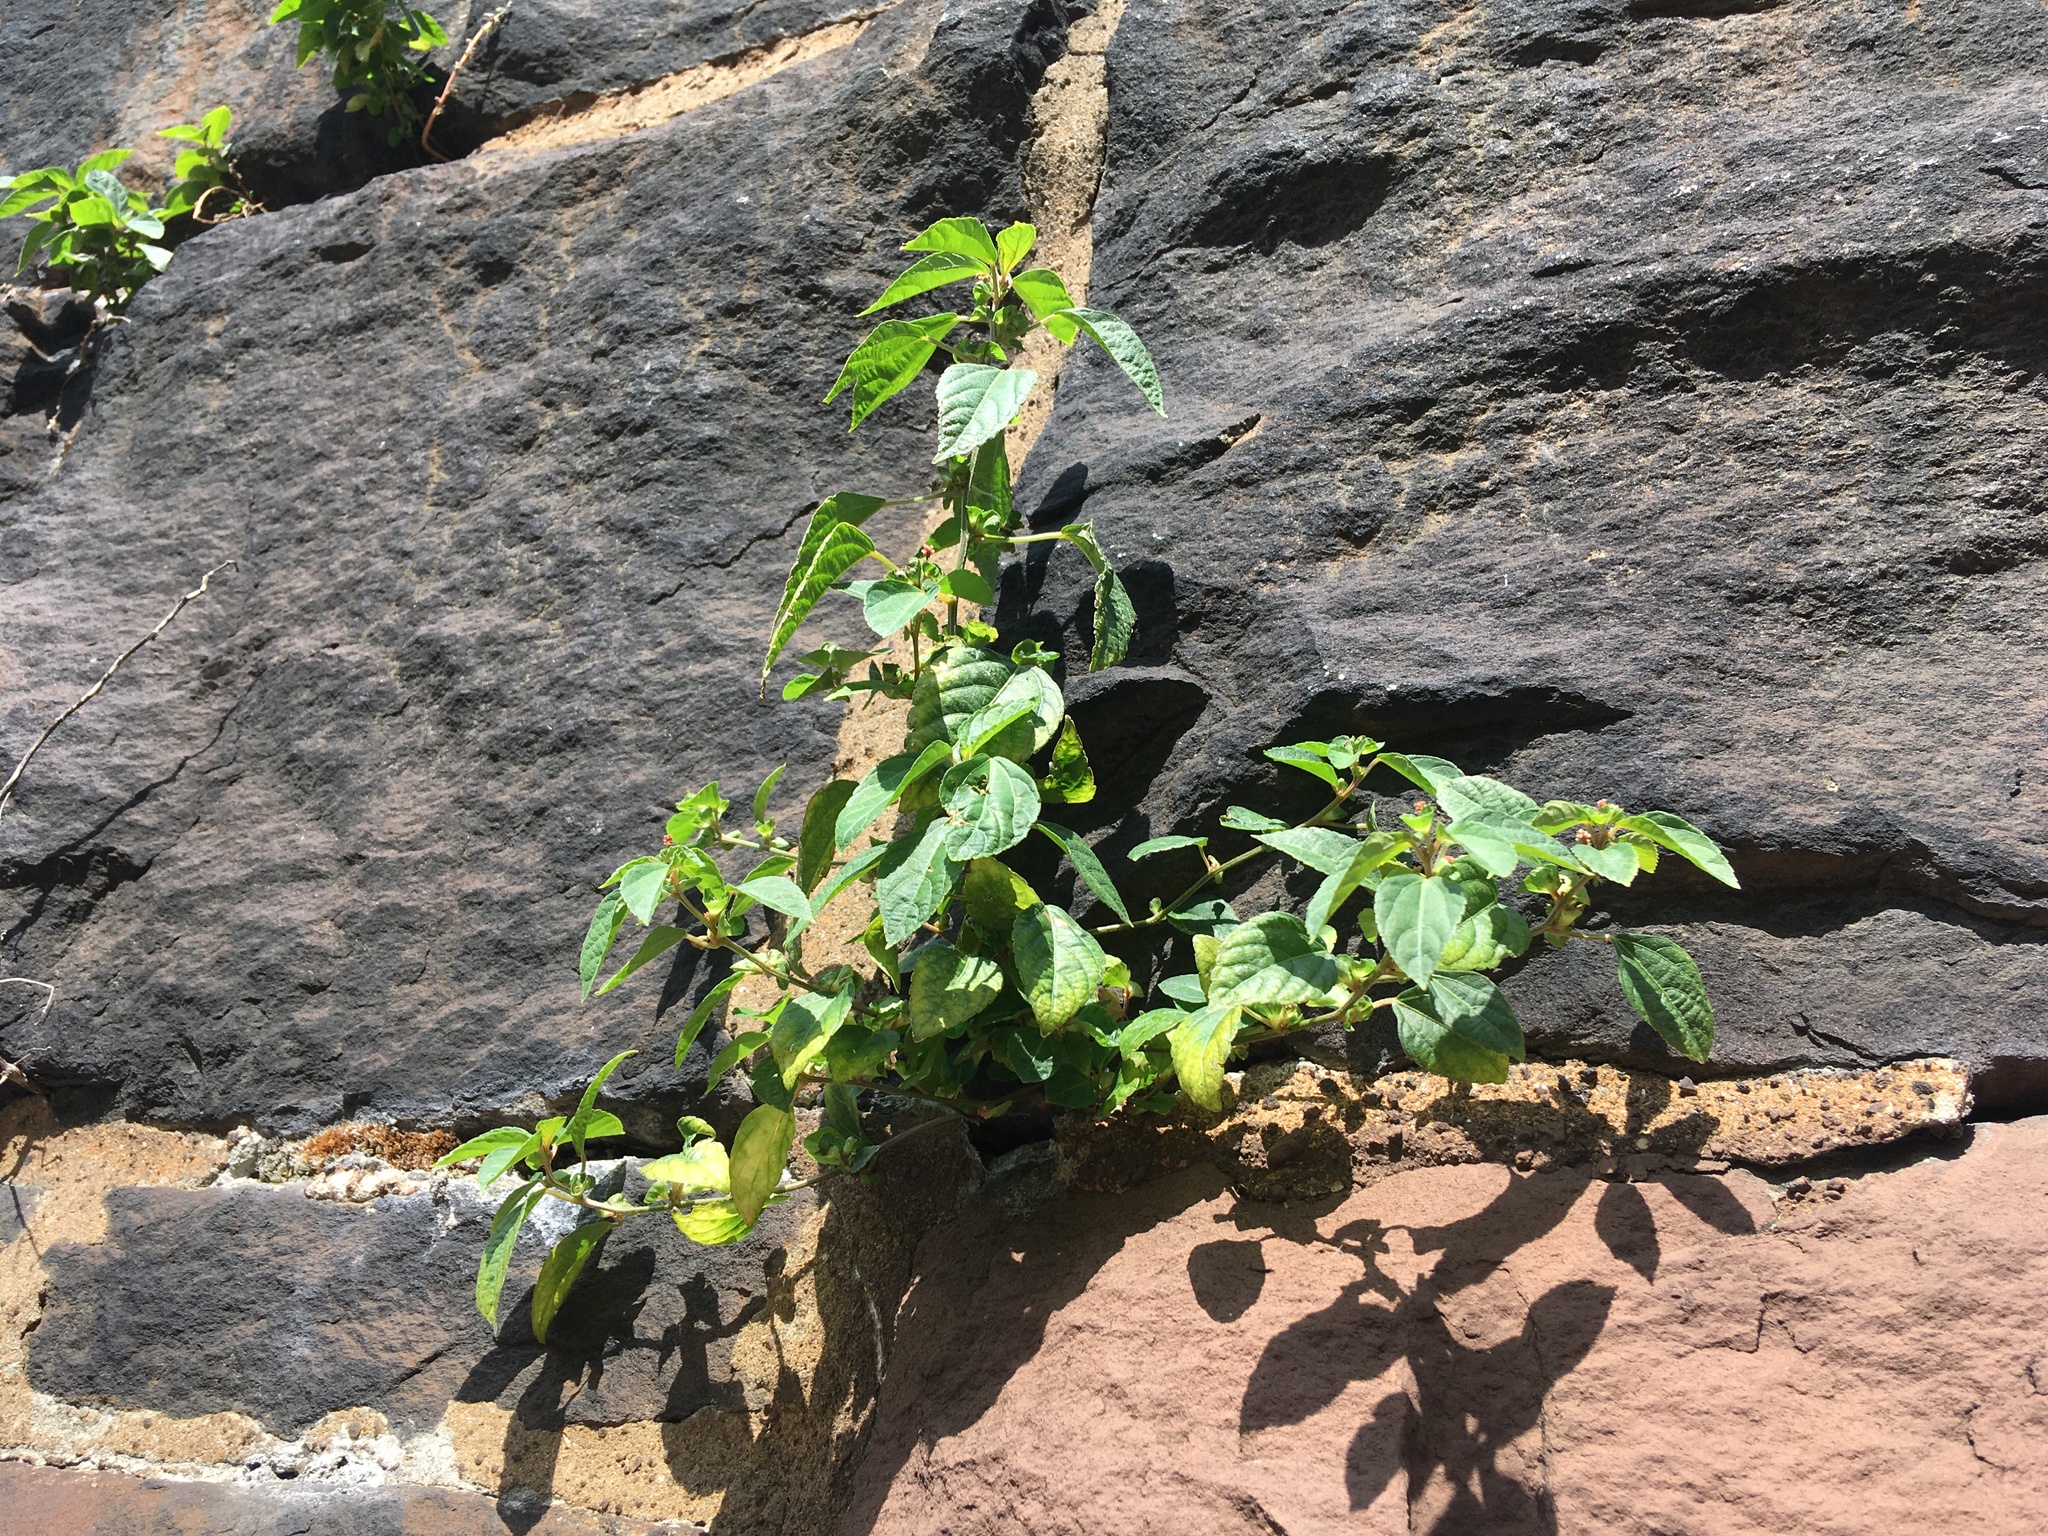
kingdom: Plantae
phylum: Tracheophyta
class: Magnoliopsida
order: Malpighiales
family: Euphorbiaceae
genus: Acalypha
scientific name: Acalypha australis
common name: Asian copperleaf
